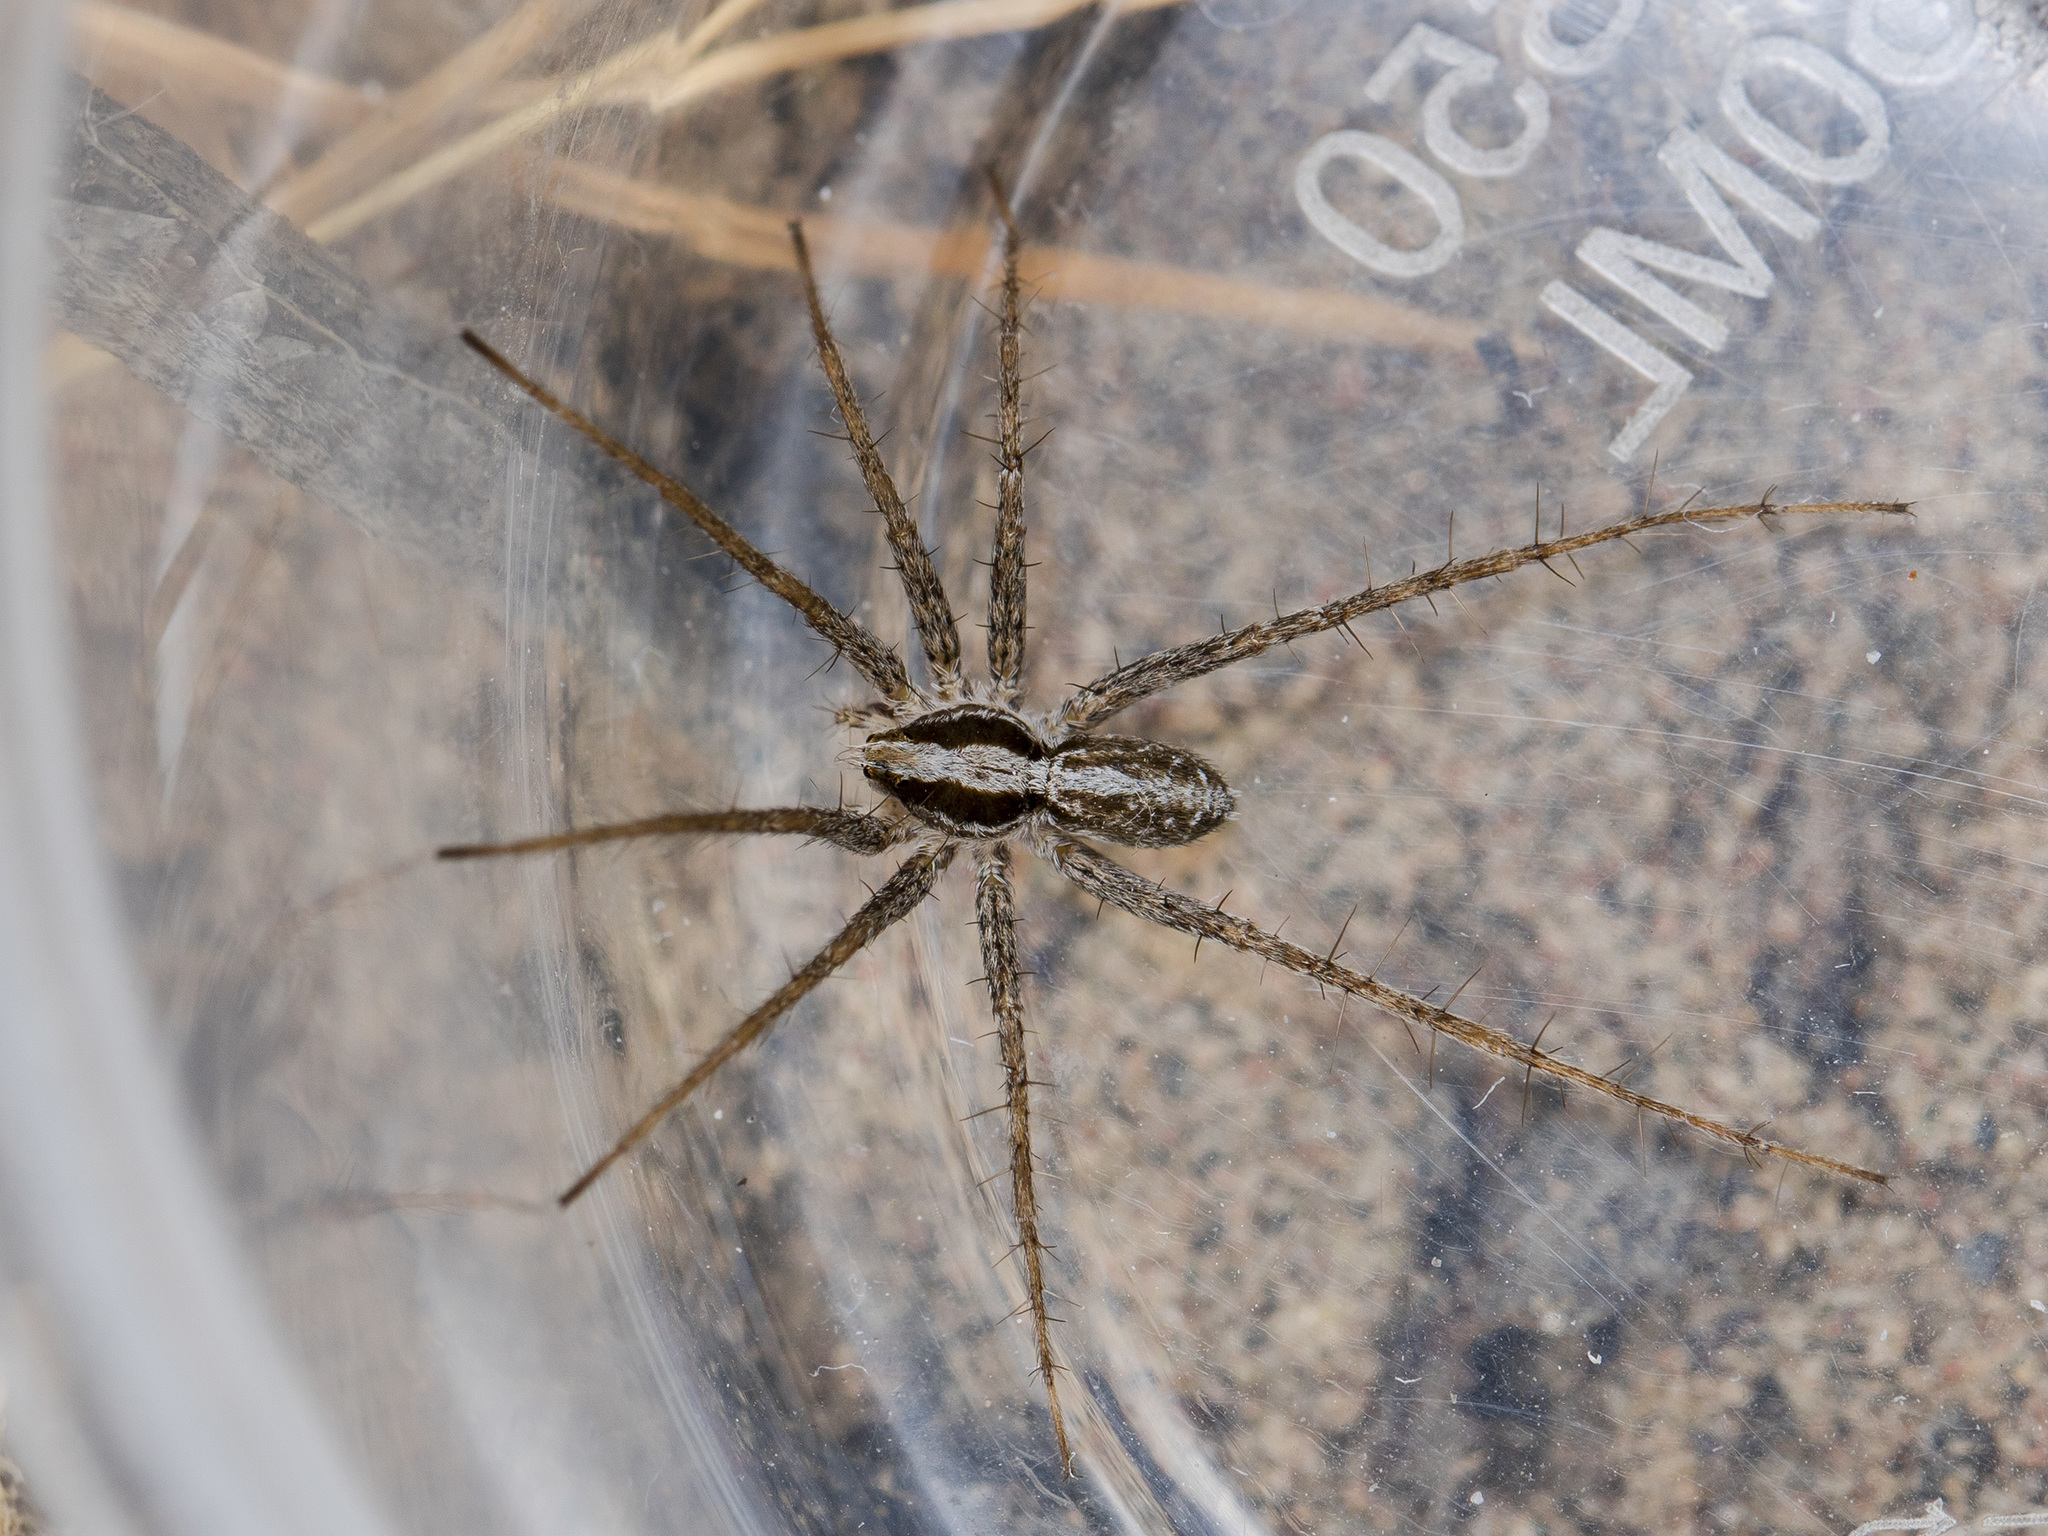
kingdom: Animalia
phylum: Arthropoda
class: Arachnida
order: Araneae
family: Lycosidae
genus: Evippa
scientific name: Evippa beschkentica
